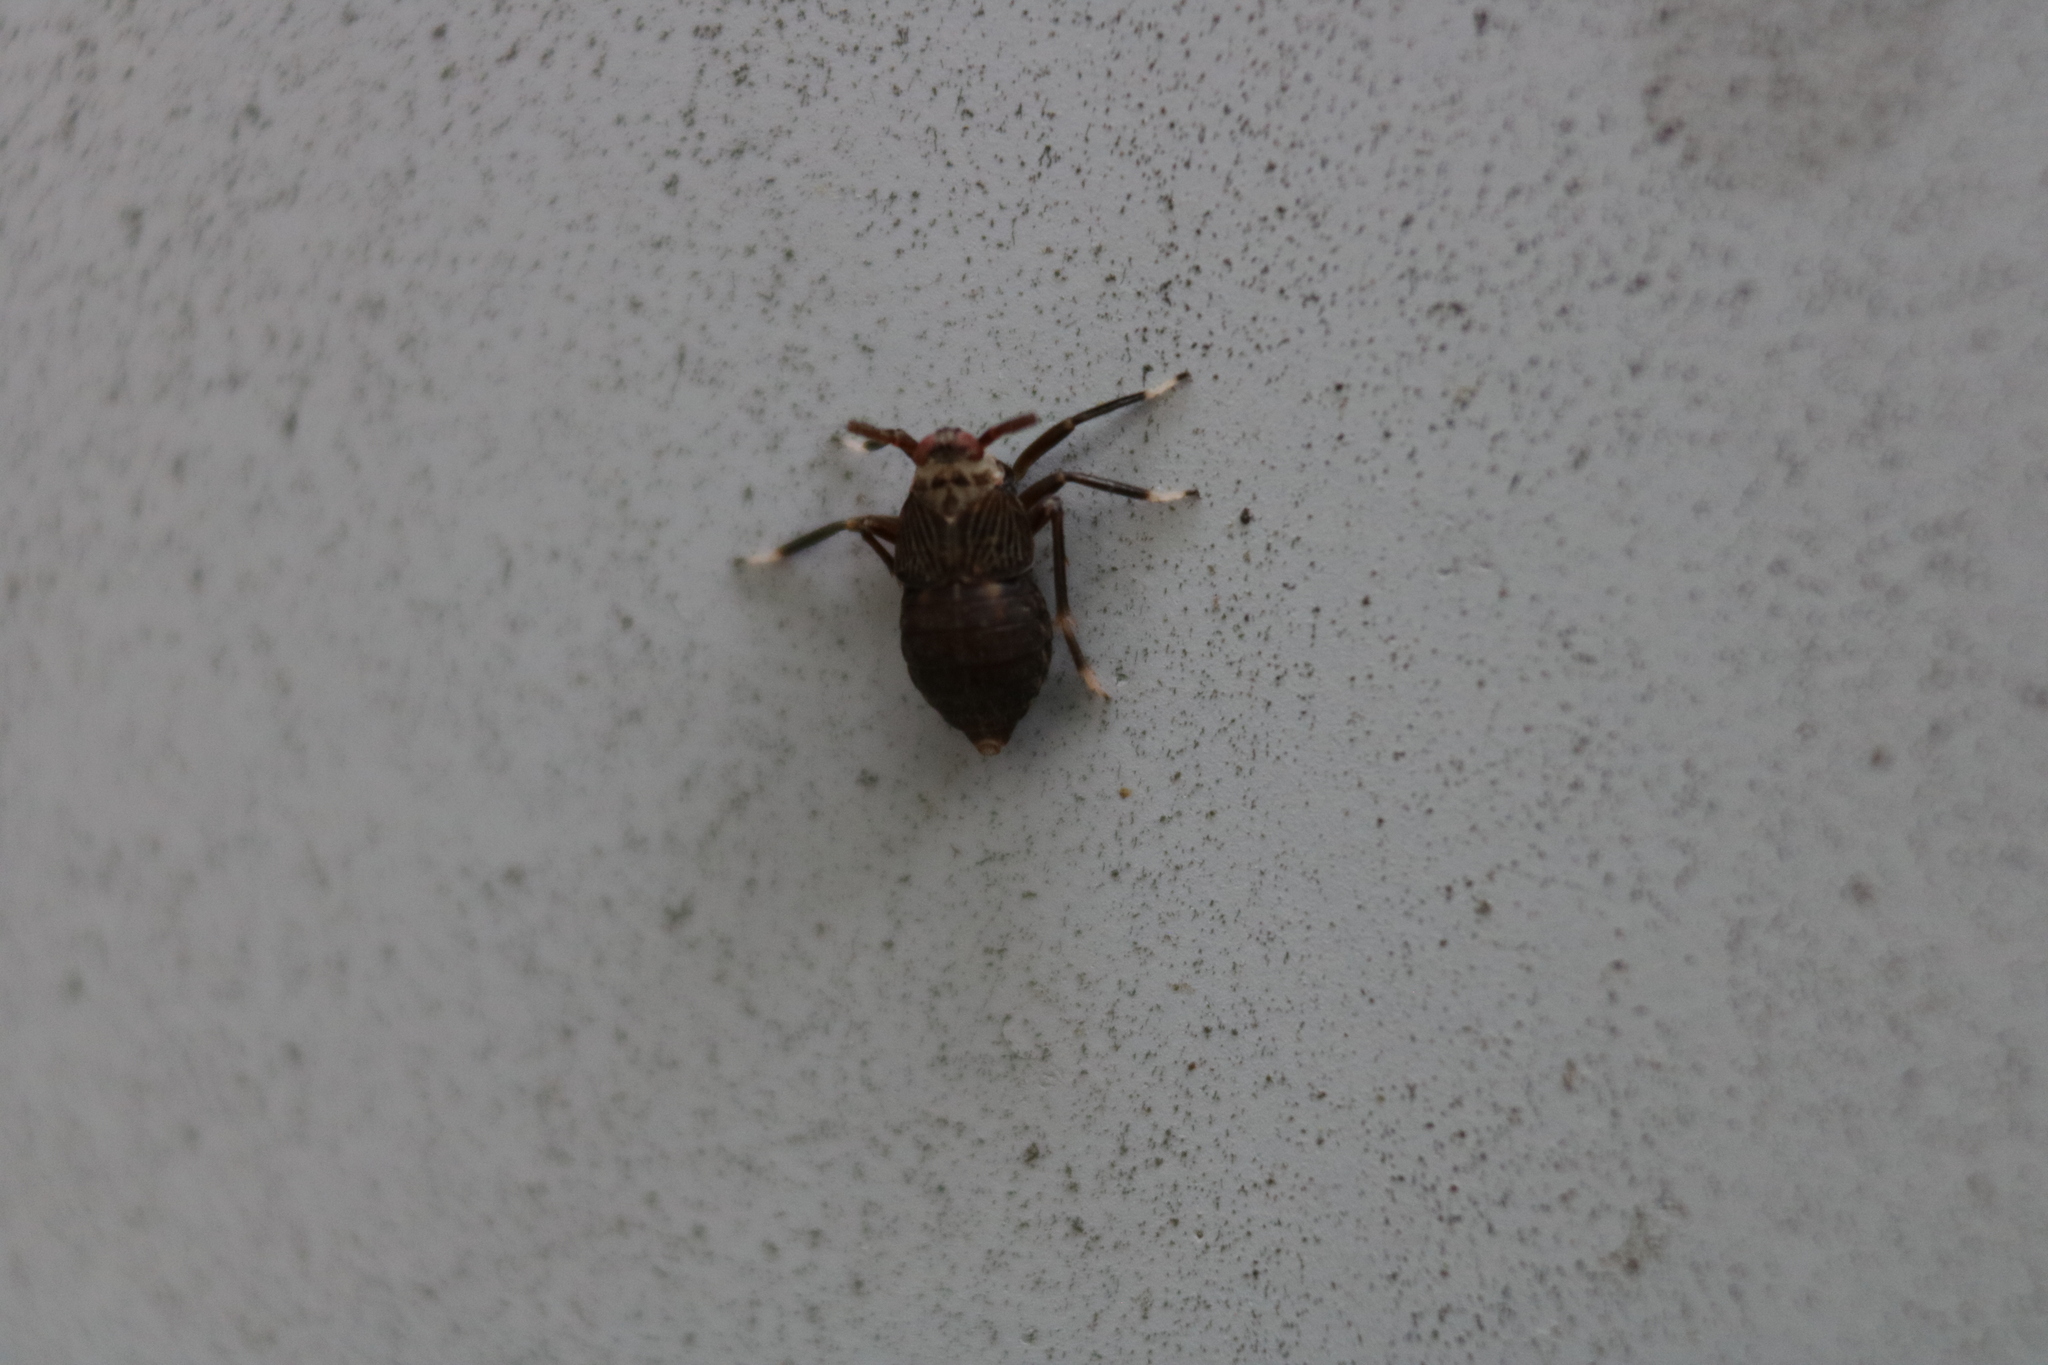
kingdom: Animalia
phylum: Arthropoda
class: Insecta
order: Hemiptera
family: Delphacidae
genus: Pissonotus
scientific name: Pissonotus aphidioides
